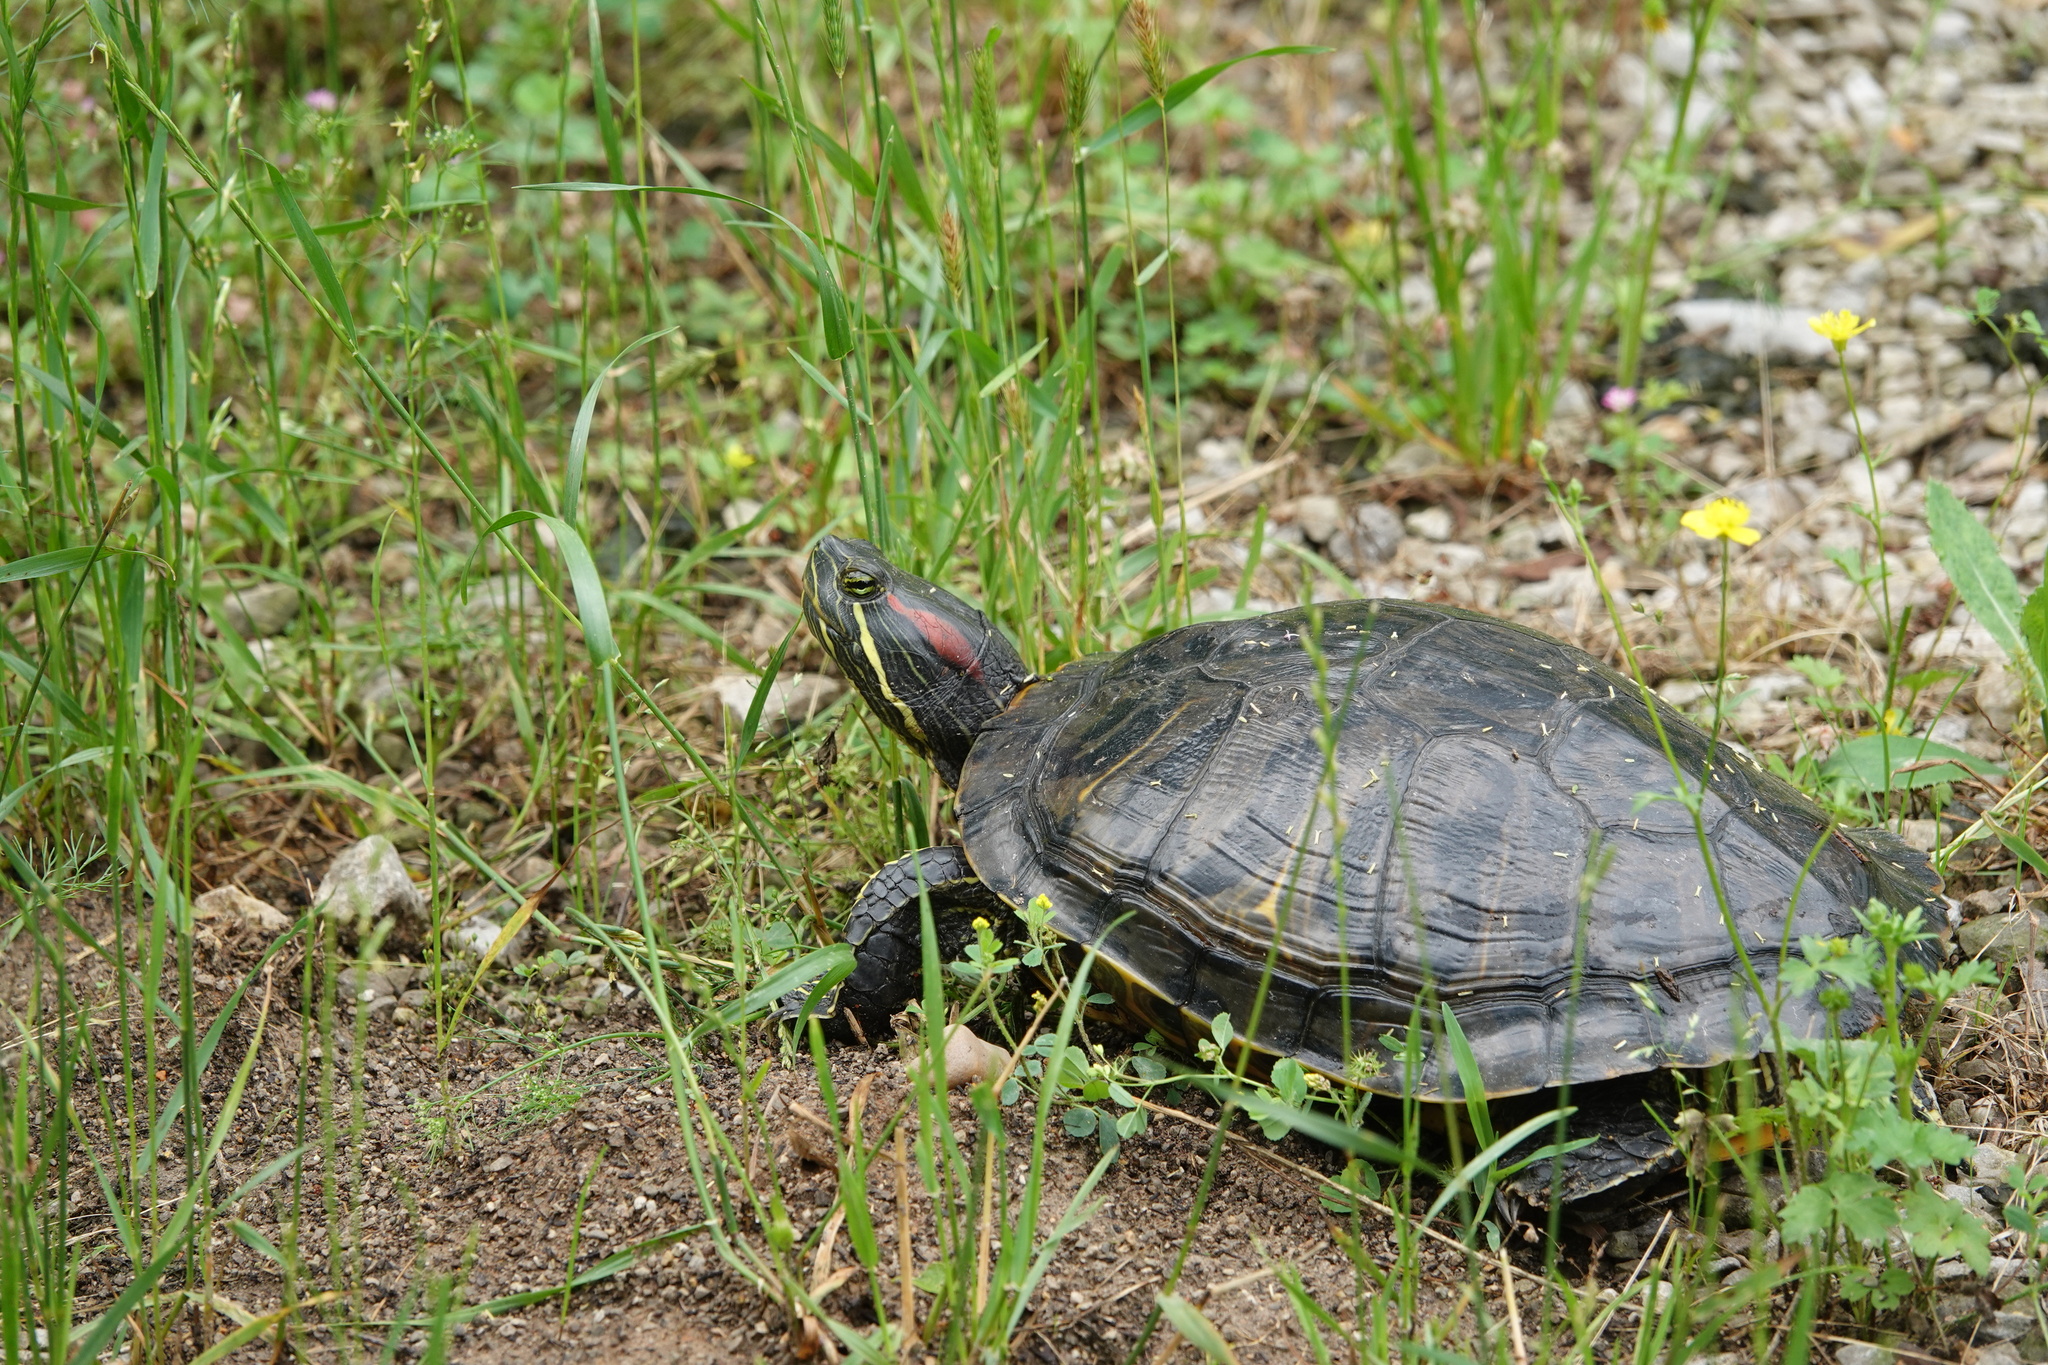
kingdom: Animalia
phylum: Chordata
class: Testudines
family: Emydidae
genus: Trachemys
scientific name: Trachemys scripta
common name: Slider
